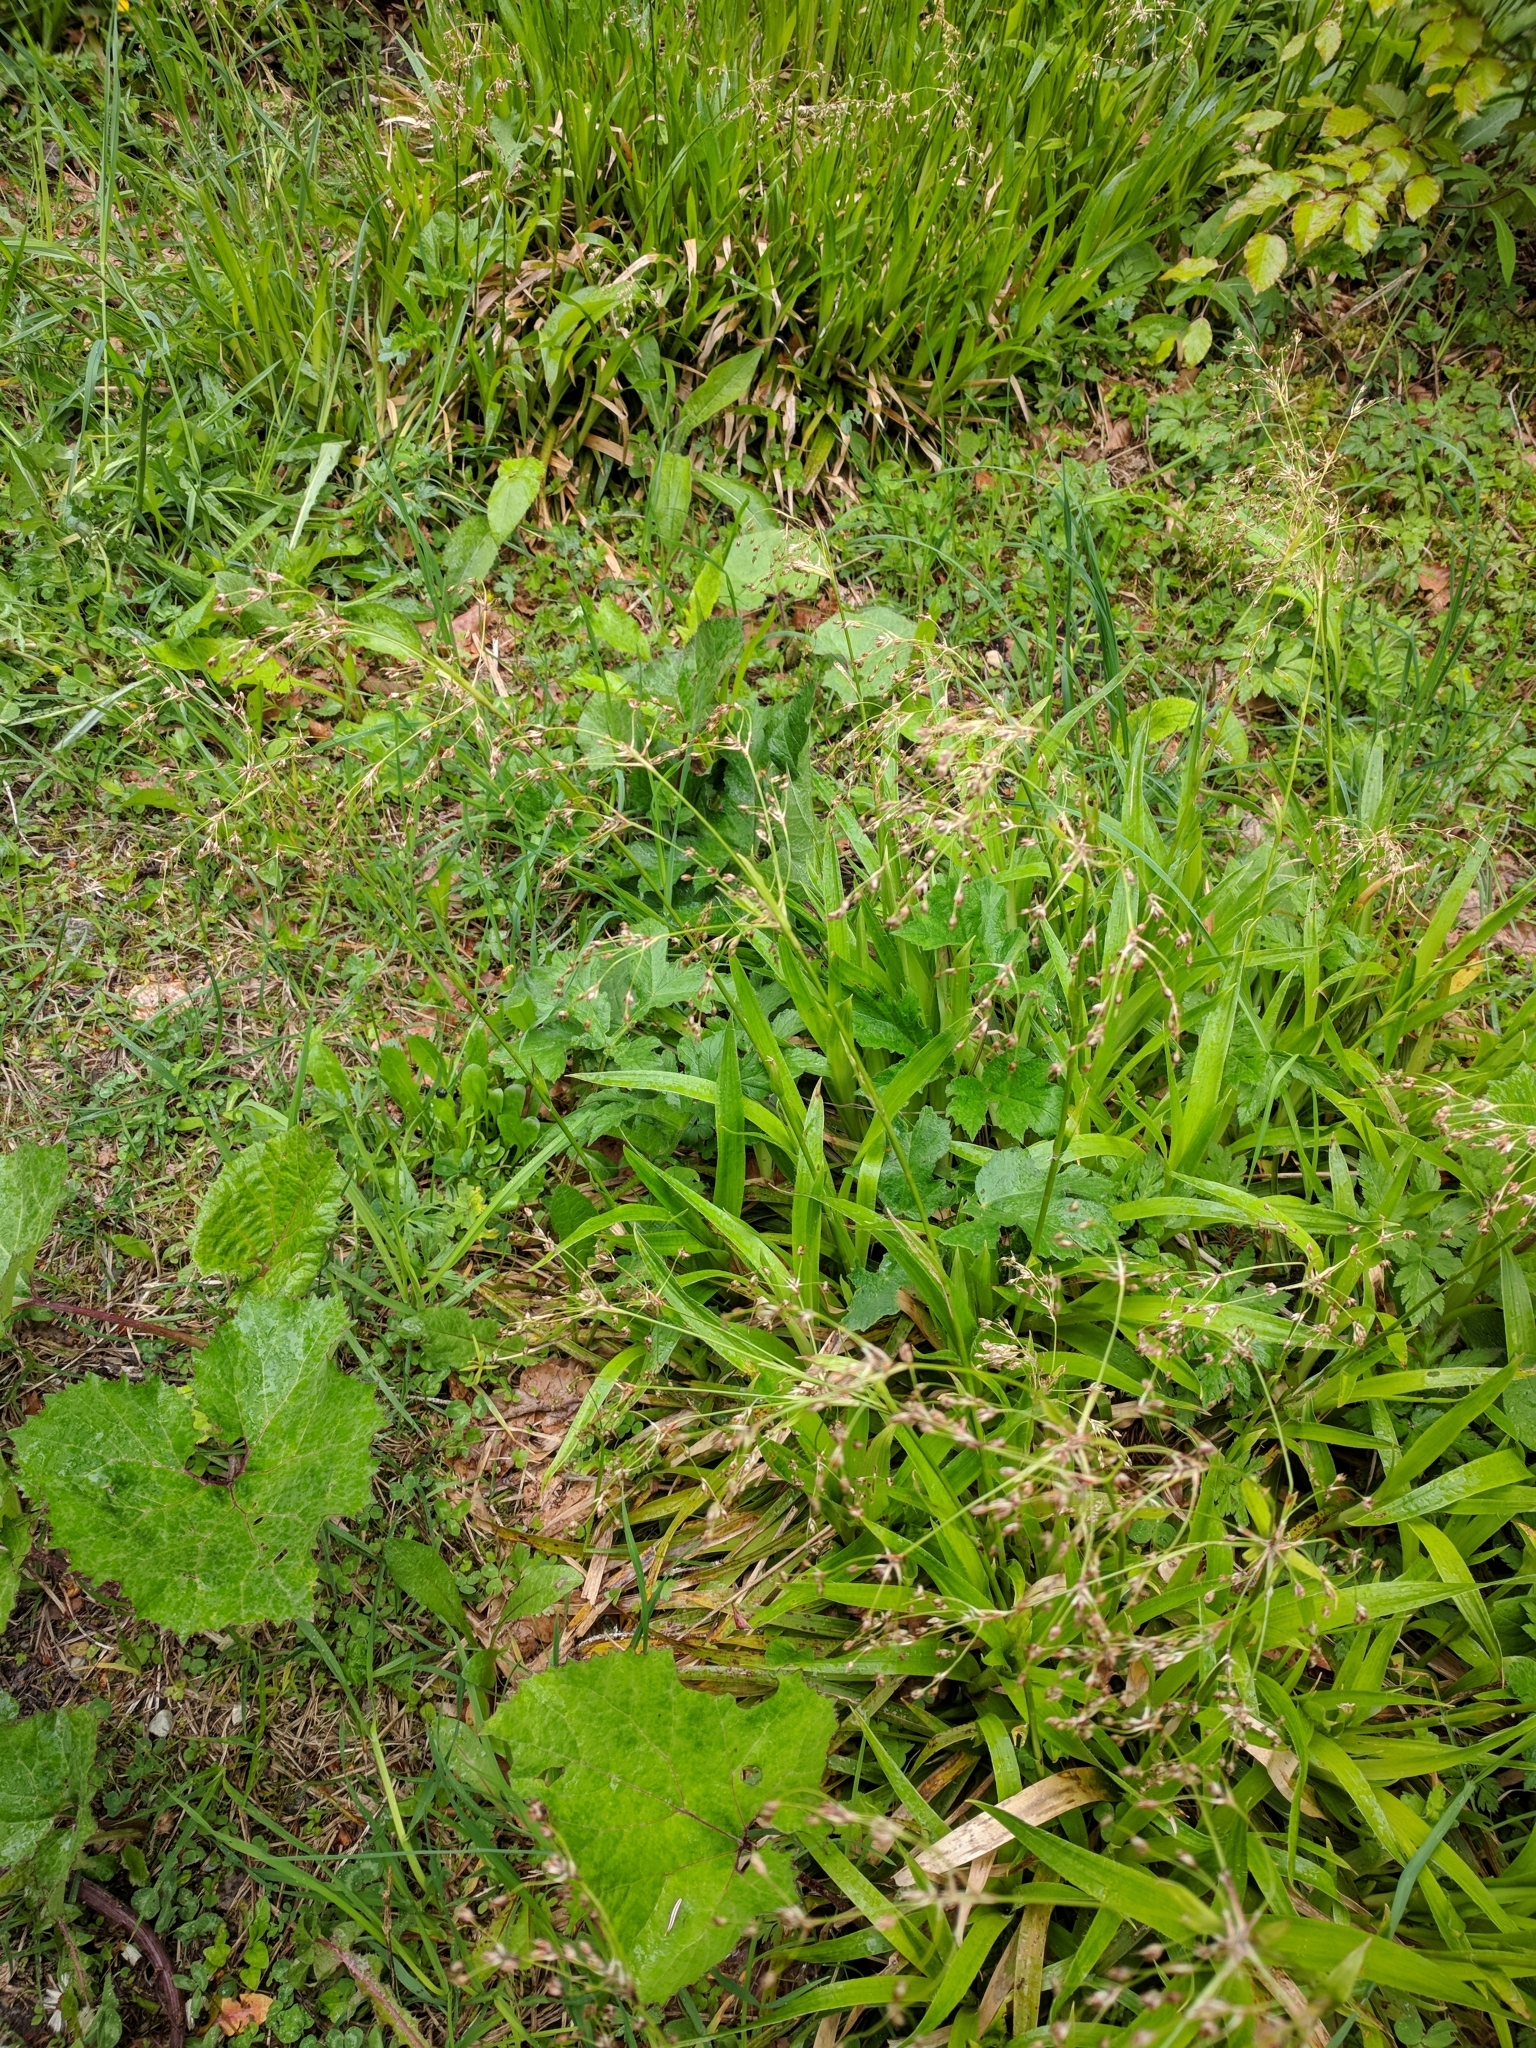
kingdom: Plantae
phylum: Tracheophyta
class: Liliopsida
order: Poales
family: Juncaceae
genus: Luzula
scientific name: Luzula sylvatica
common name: Great wood-rush
